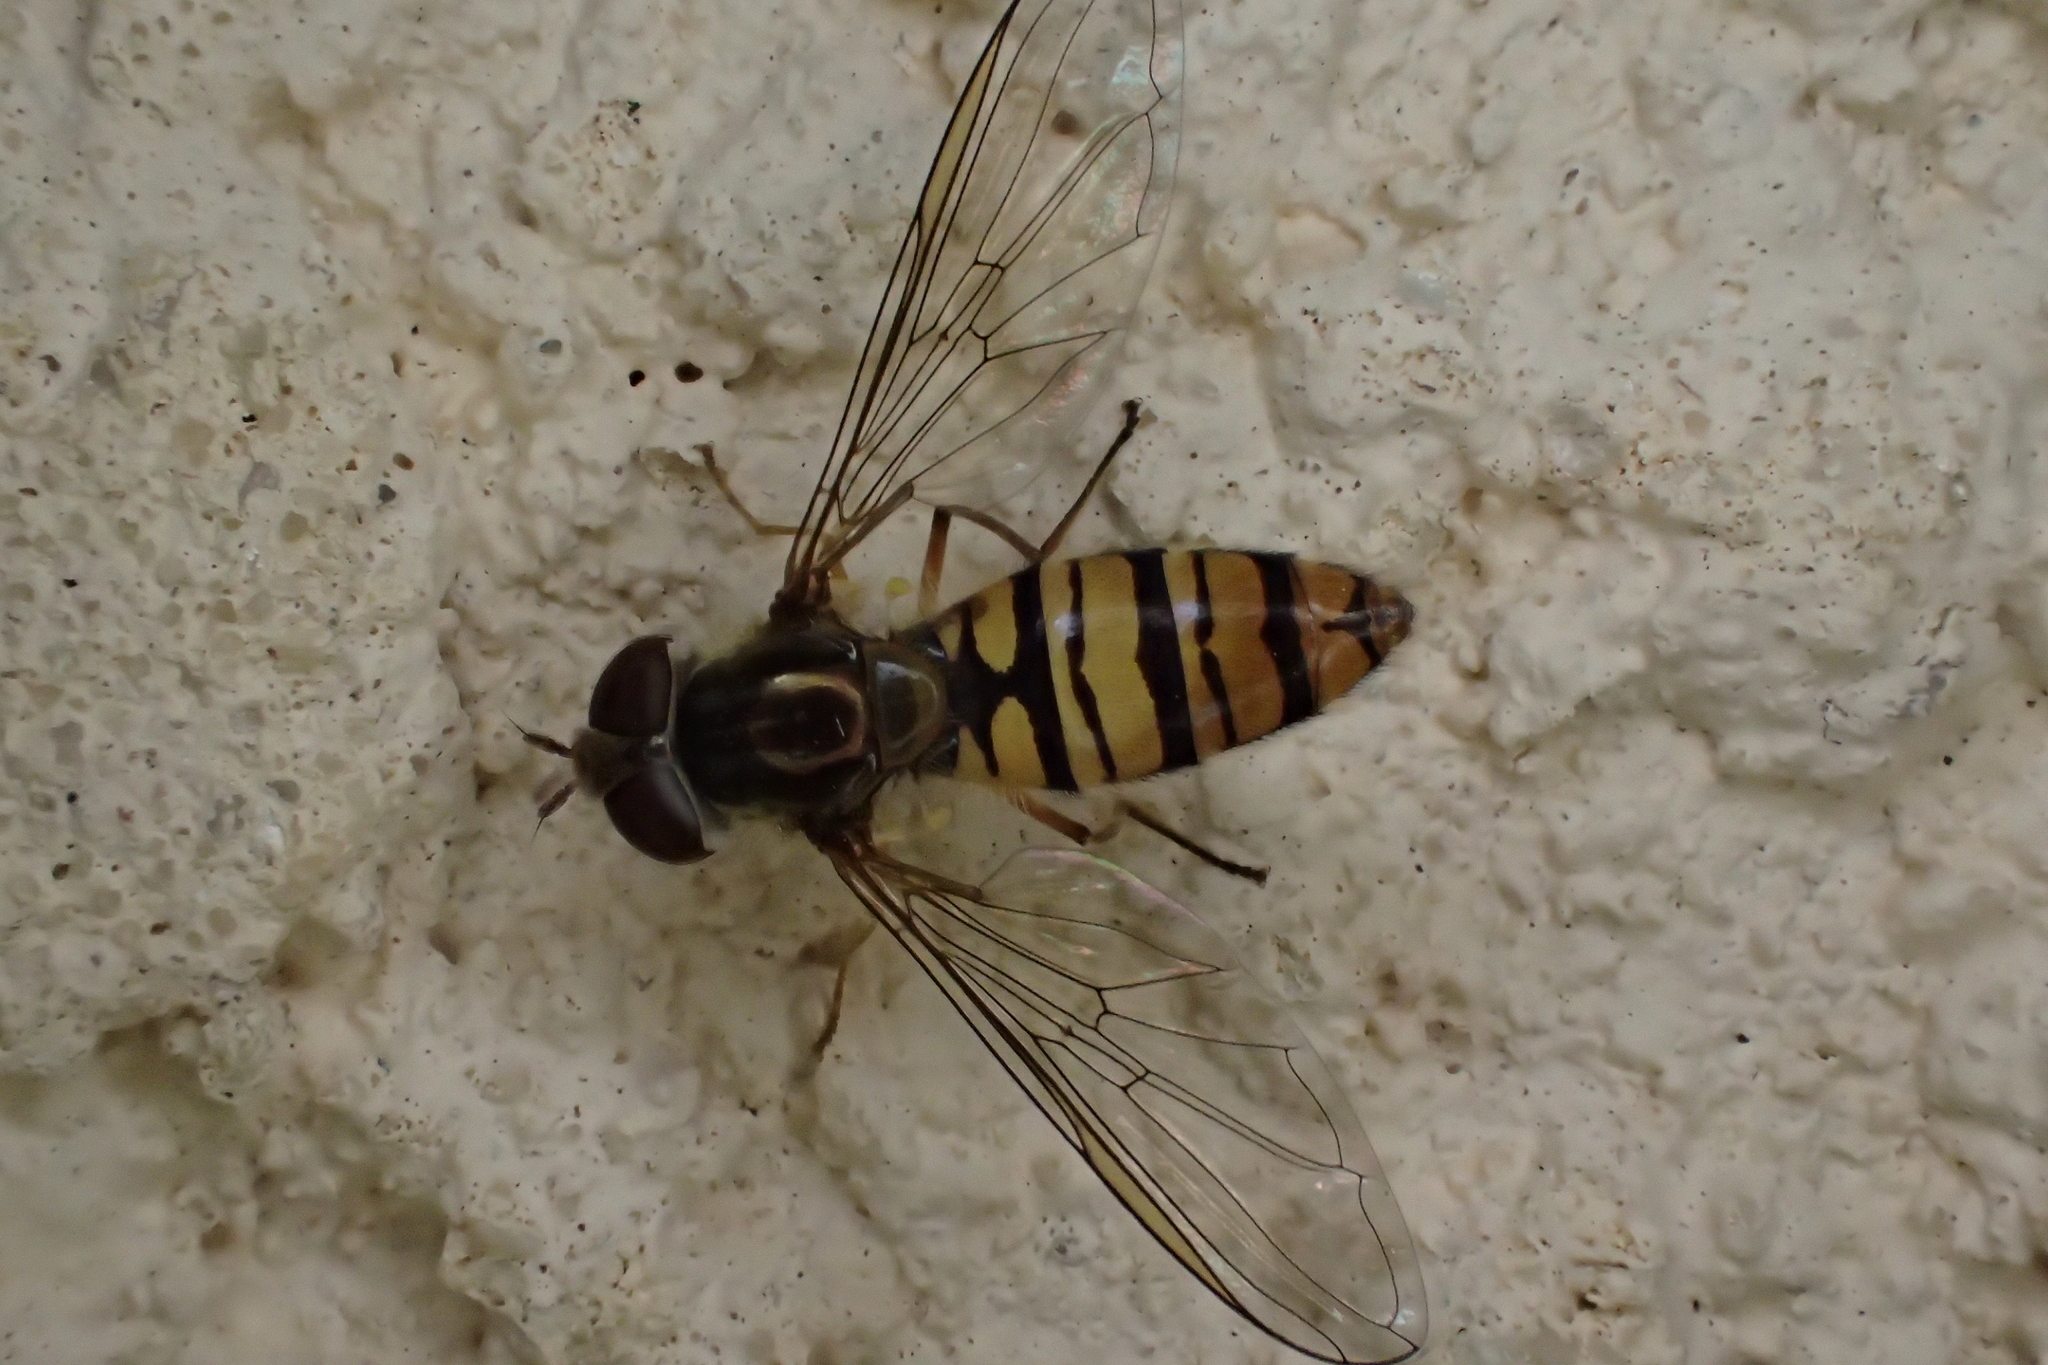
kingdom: Animalia
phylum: Arthropoda
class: Insecta
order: Diptera
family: Syrphidae
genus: Episyrphus
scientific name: Episyrphus balteatus
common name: Marmalade hoverfly
